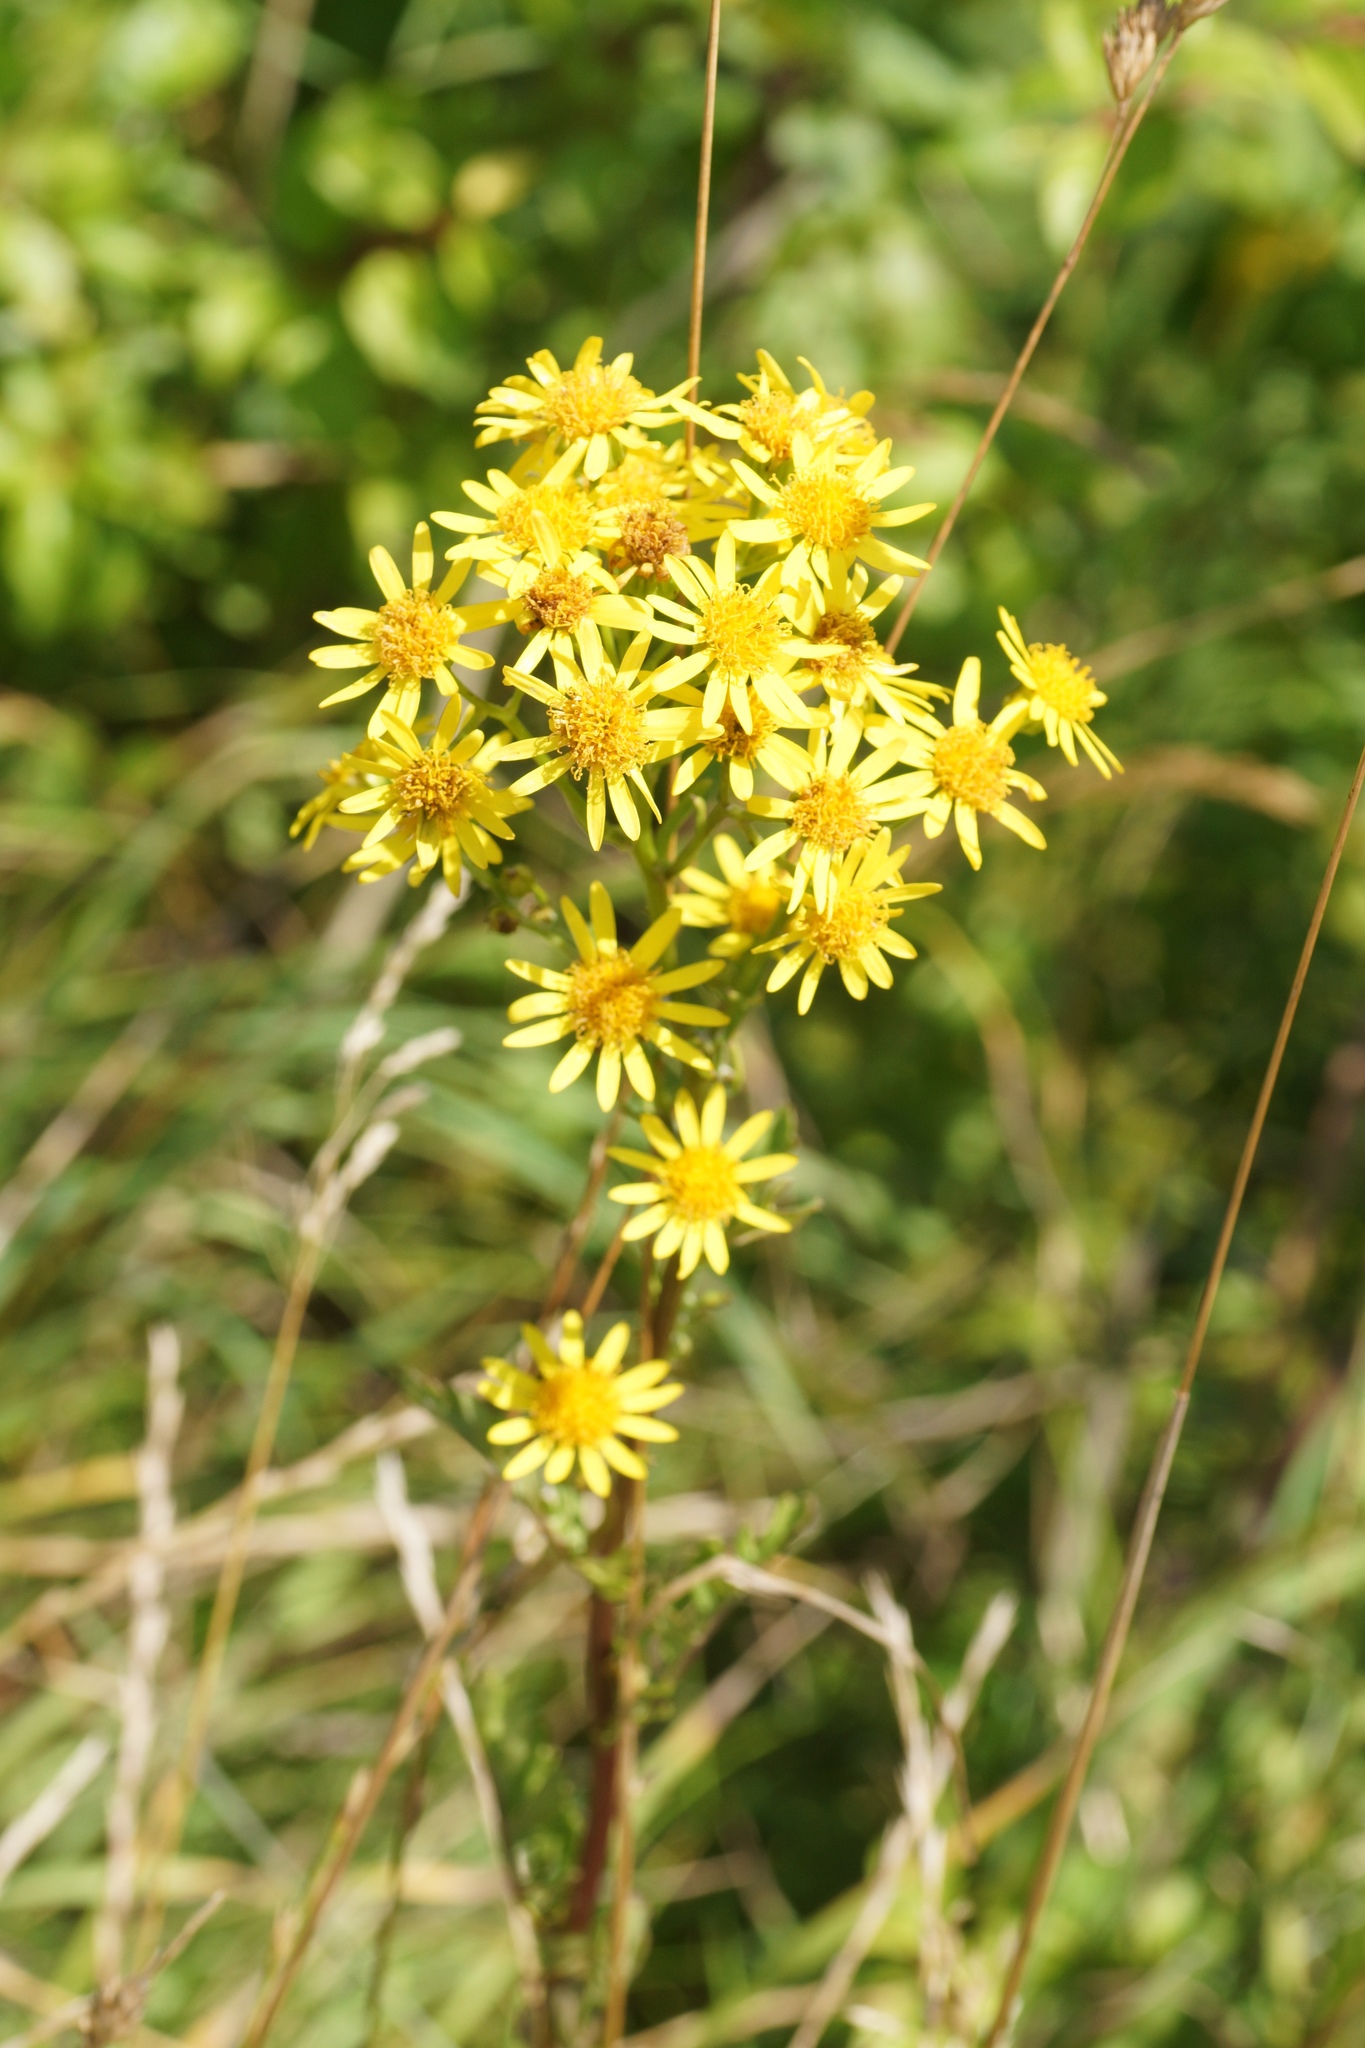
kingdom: Plantae
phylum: Tracheophyta
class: Magnoliopsida
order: Asterales
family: Asteraceae
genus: Jacobaea
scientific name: Jacobaea vulgaris
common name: Stinking willie
